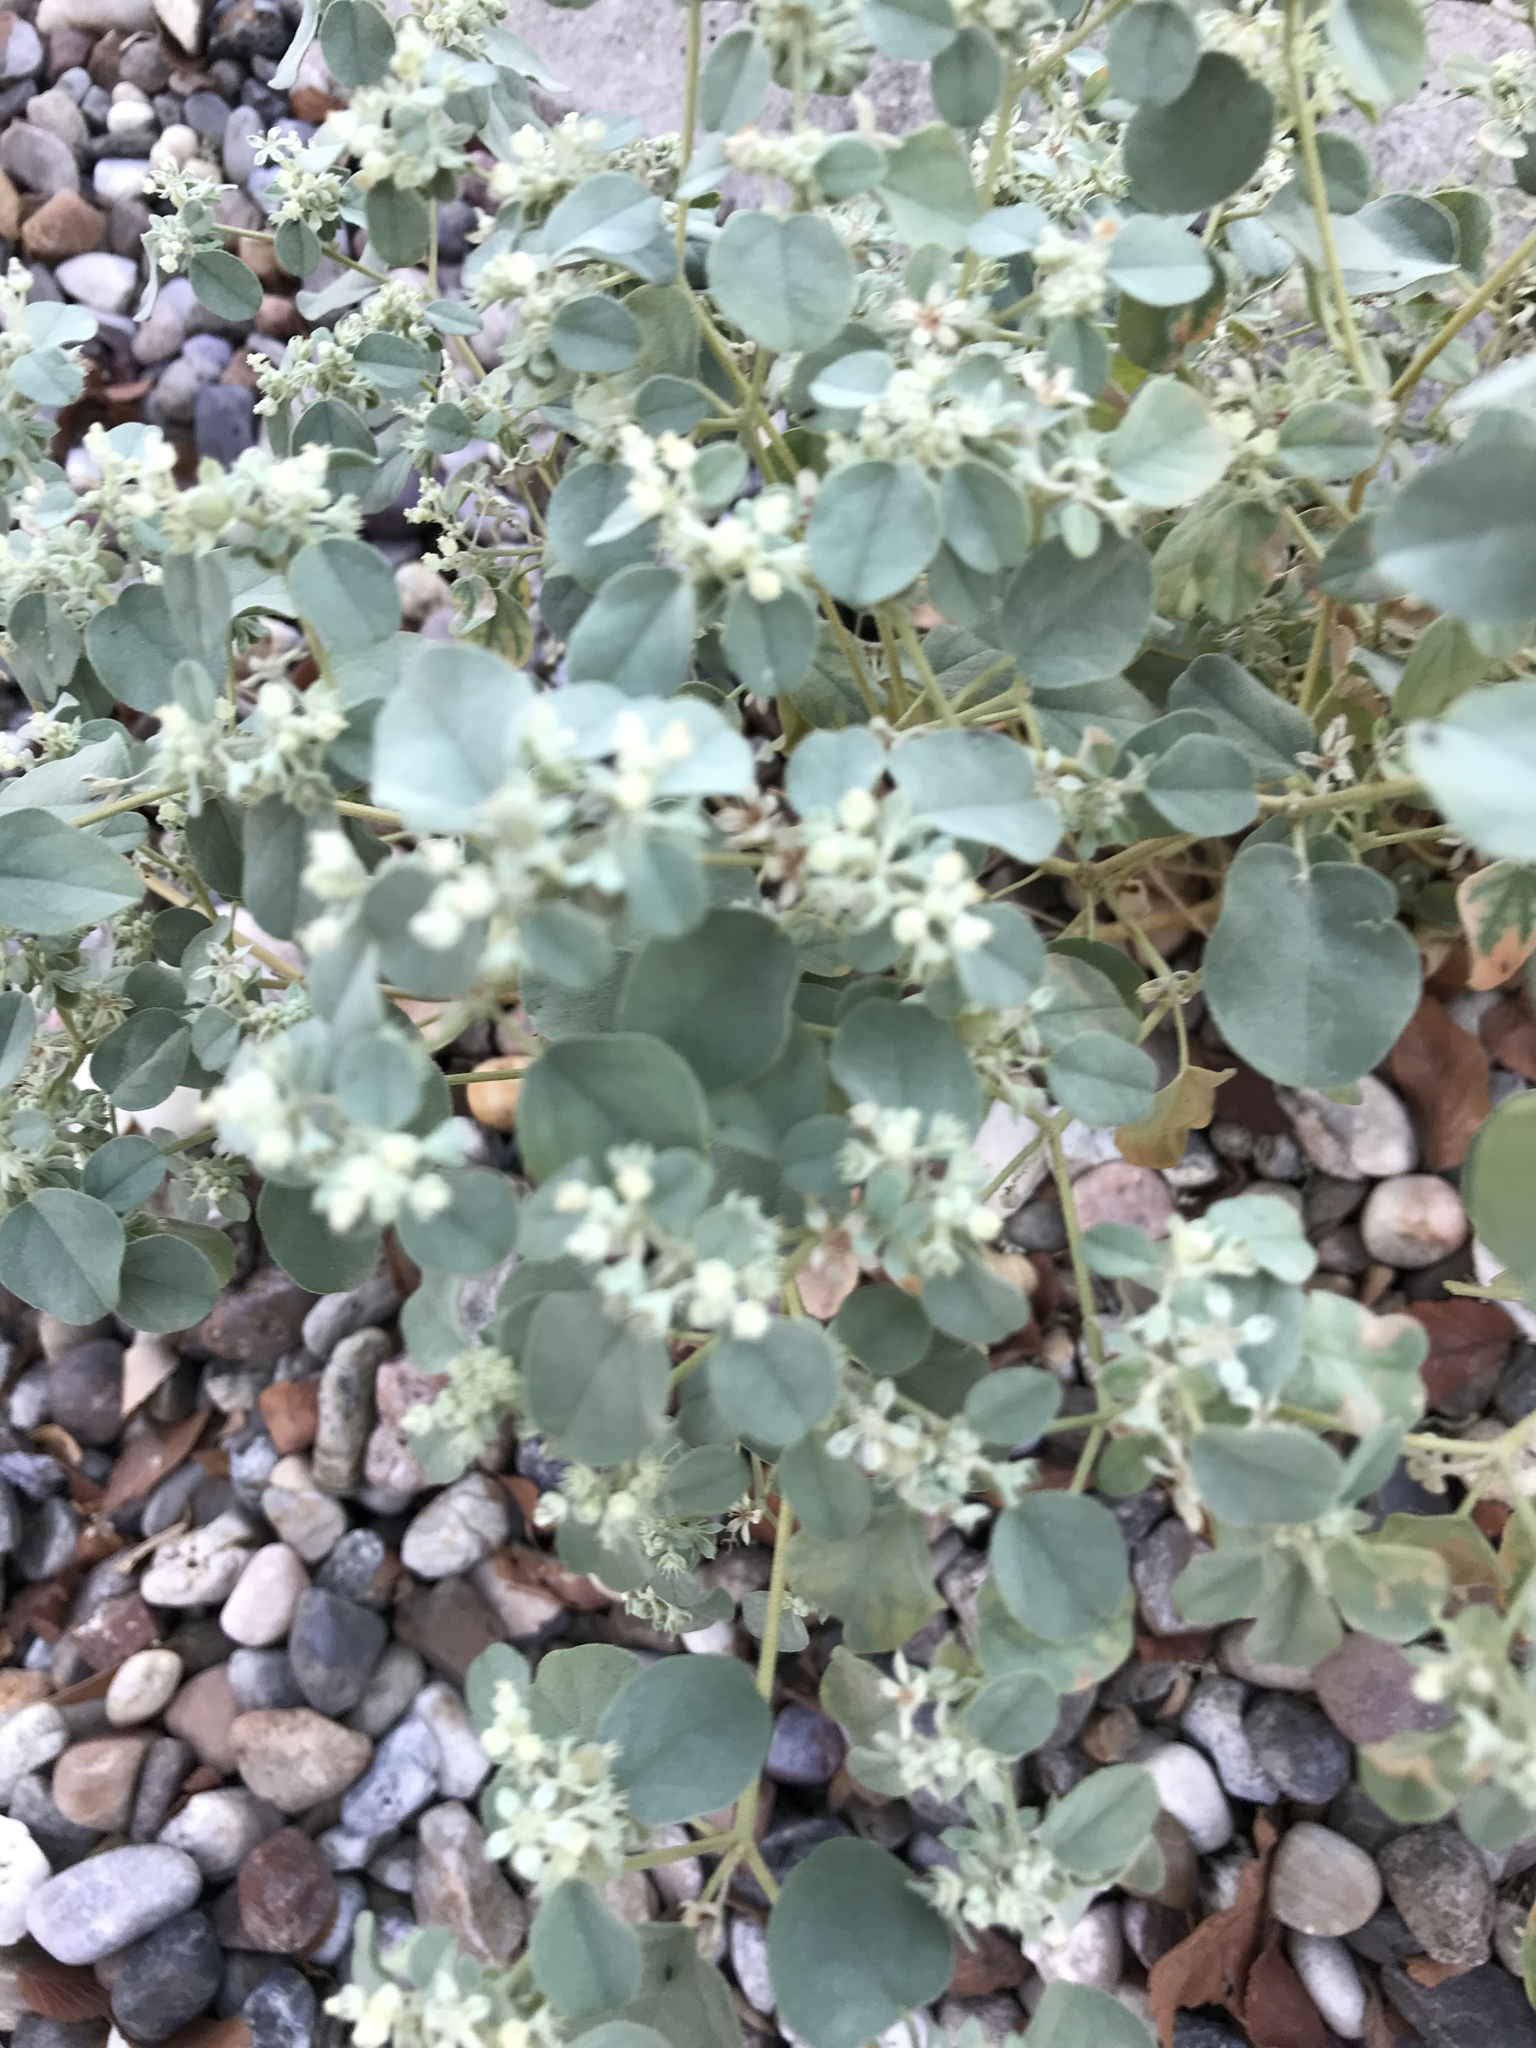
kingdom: Plantae
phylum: Tracheophyta
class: Magnoliopsida
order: Malpighiales
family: Euphorbiaceae
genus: Croton
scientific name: Croton lindheimerianus
